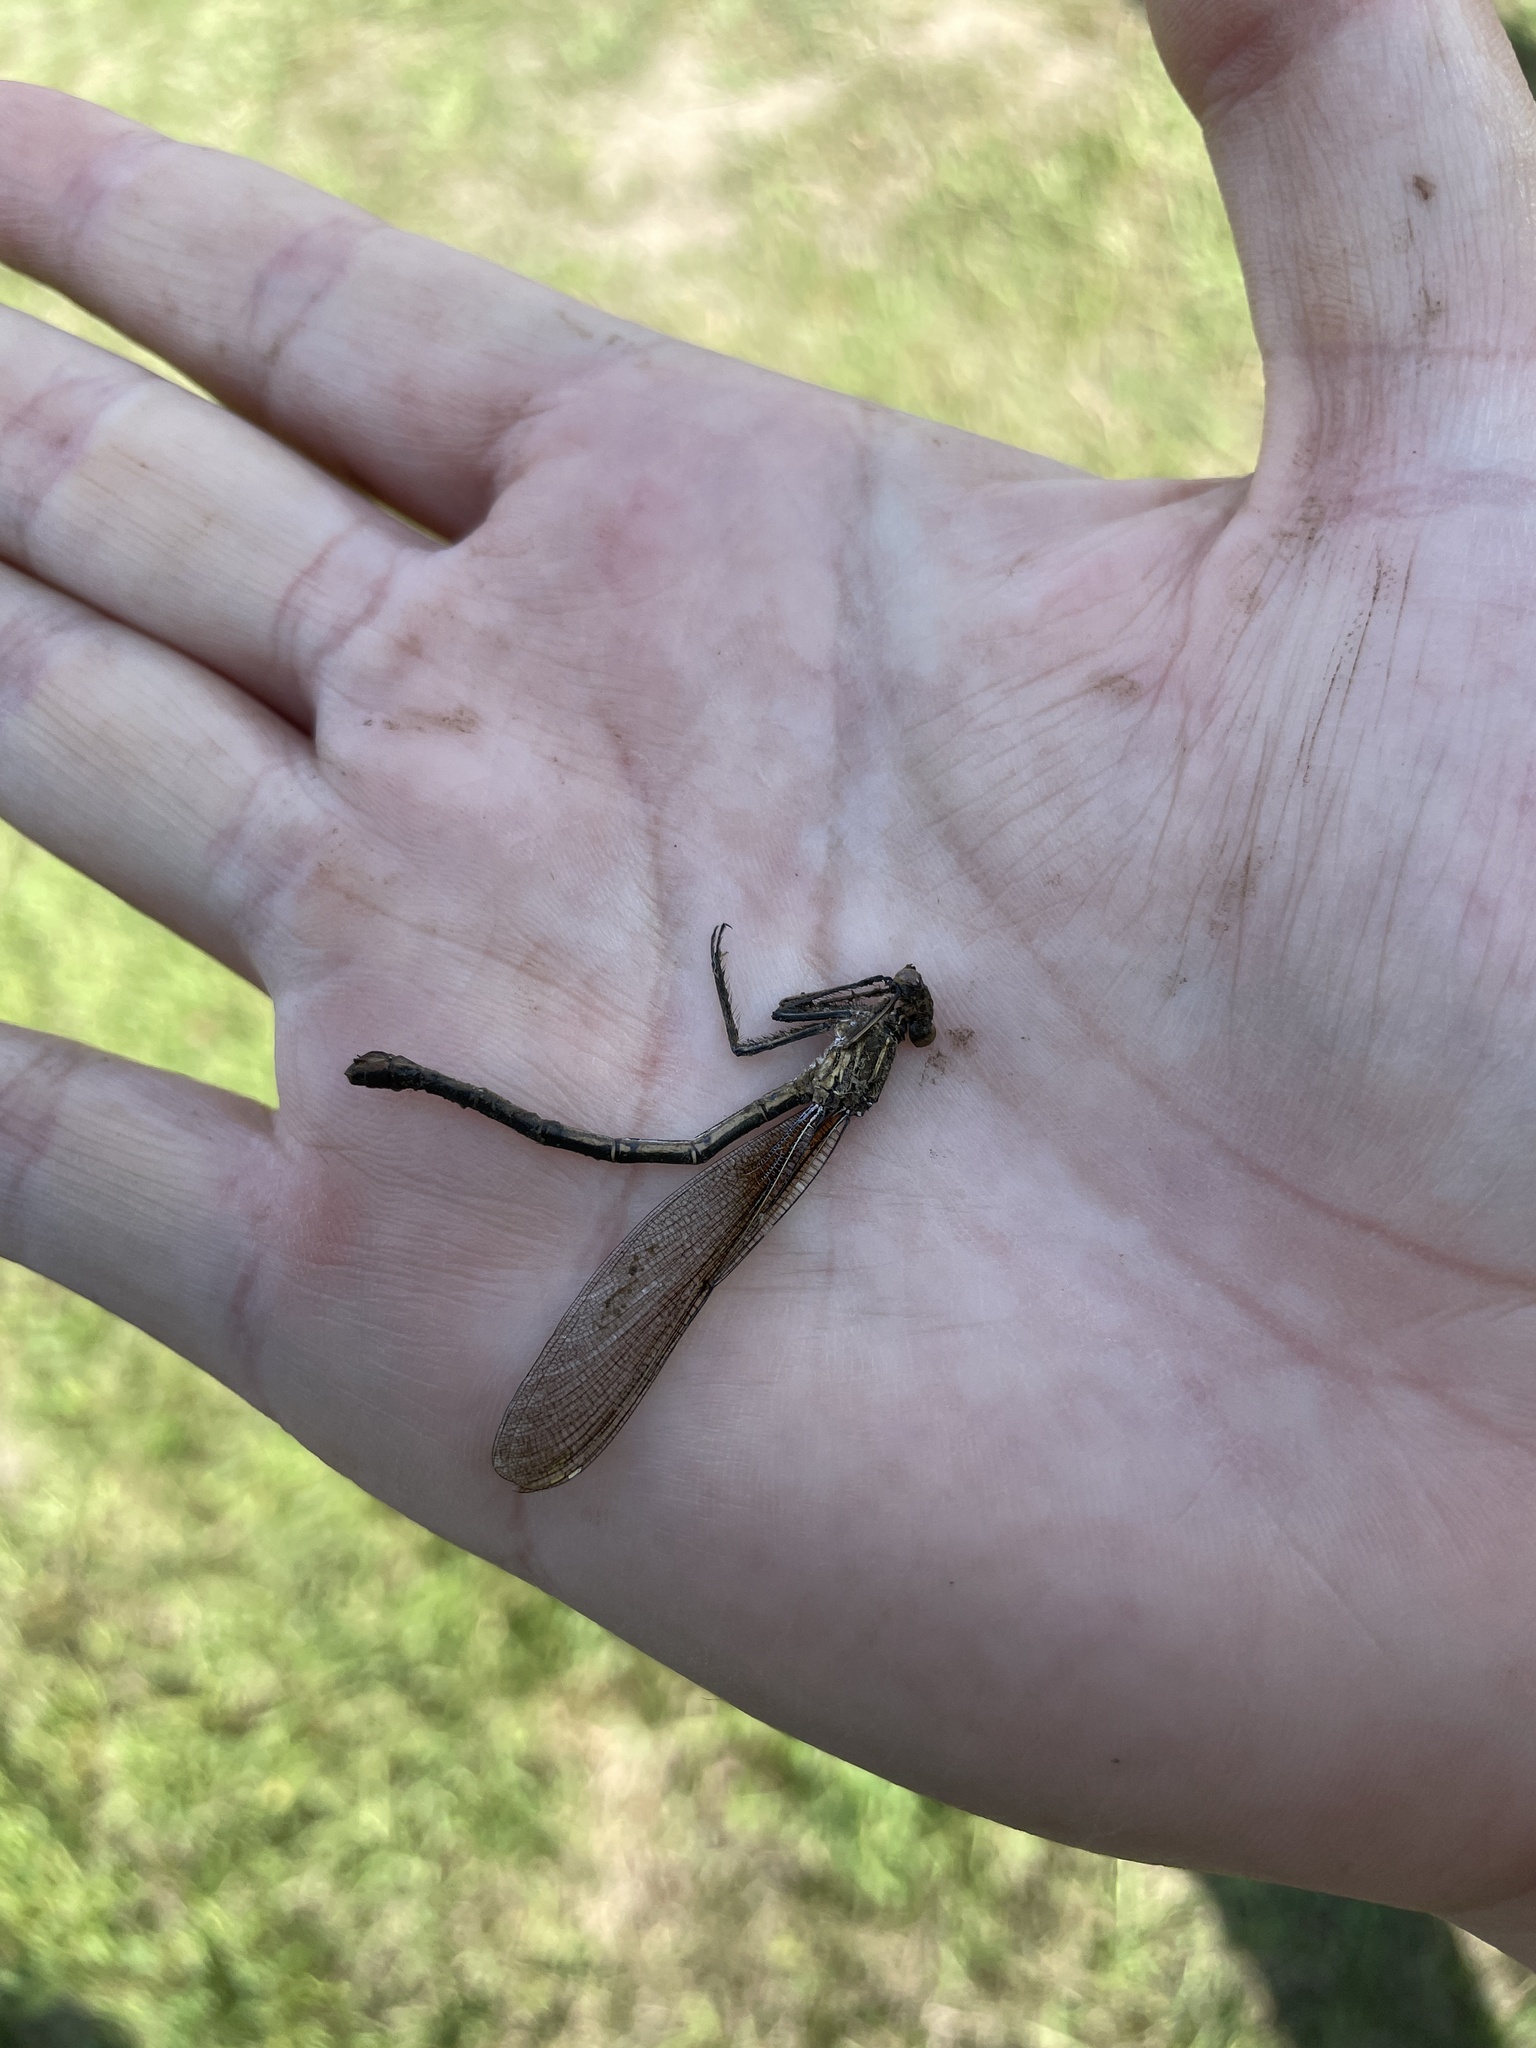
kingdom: Animalia
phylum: Arthropoda
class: Insecta
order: Odonata
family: Calopterygidae
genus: Hetaerina
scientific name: Hetaerina americana
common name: American rubyspot
